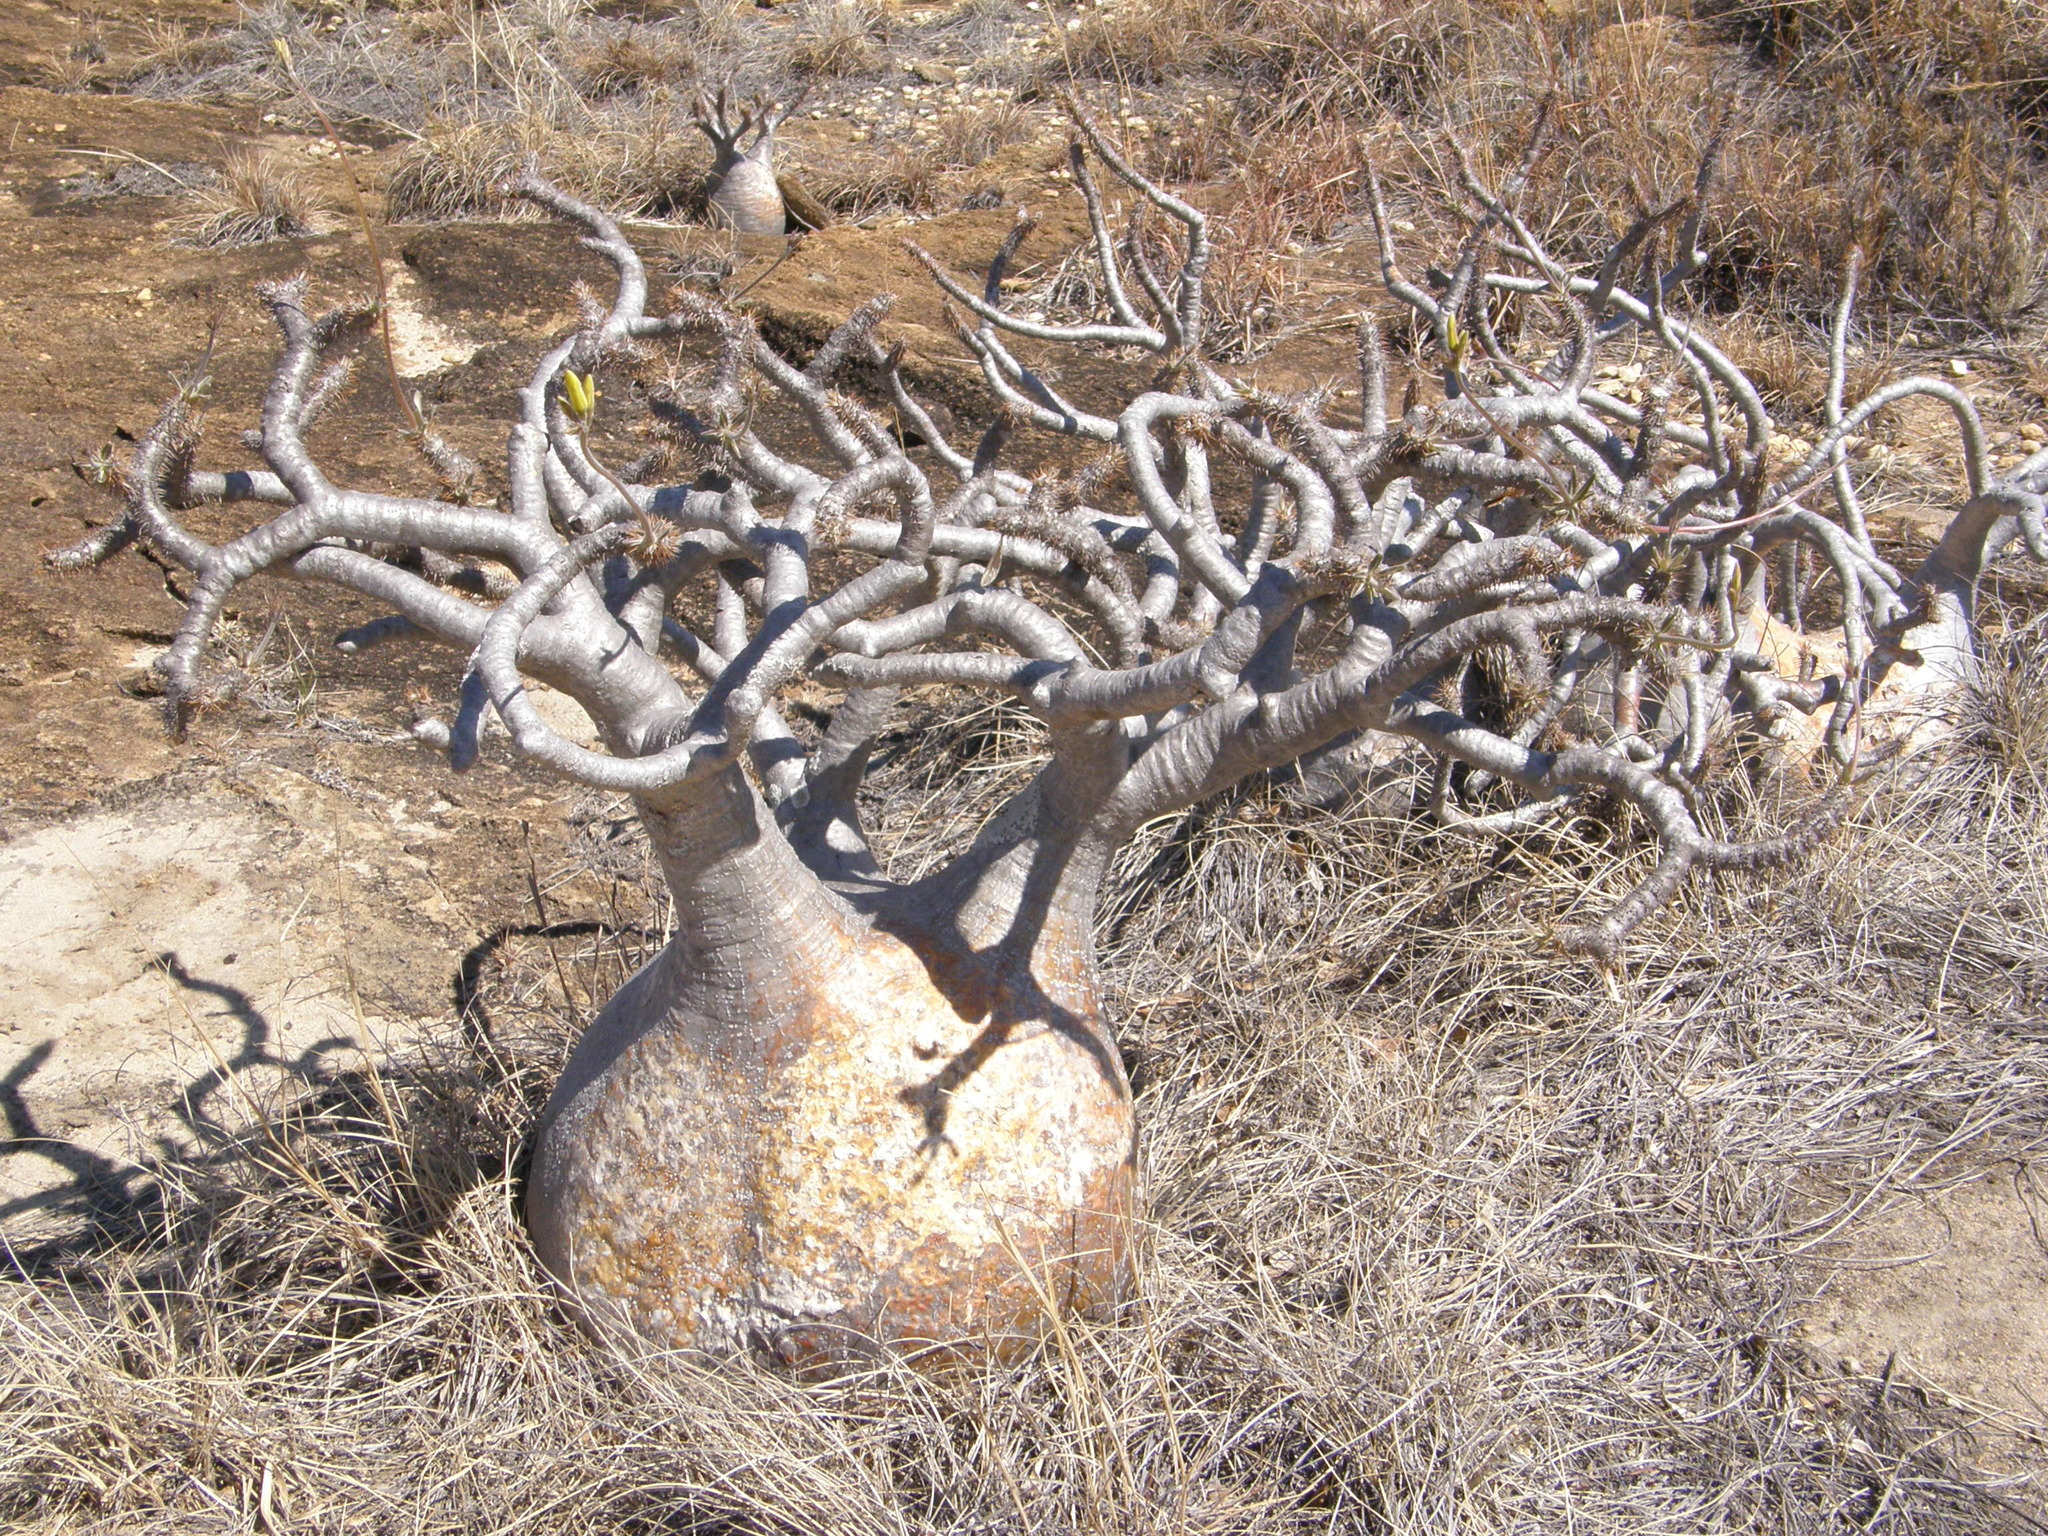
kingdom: Plantae
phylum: Tracheophyta
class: Magnoliopsida
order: Gentianales
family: Apocynaceae
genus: Pachypodium
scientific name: Pachypodium gracilius
